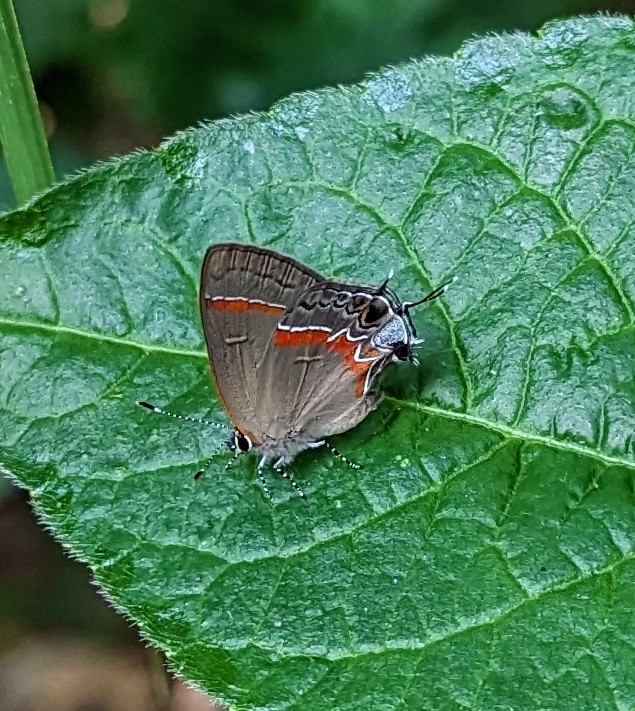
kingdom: Animalia
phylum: Arthropoda
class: Insecta
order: Lepidoptera
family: Lycaenidae
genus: Calycopis
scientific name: Calycopis cecrops
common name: Red-banded hairstreak
